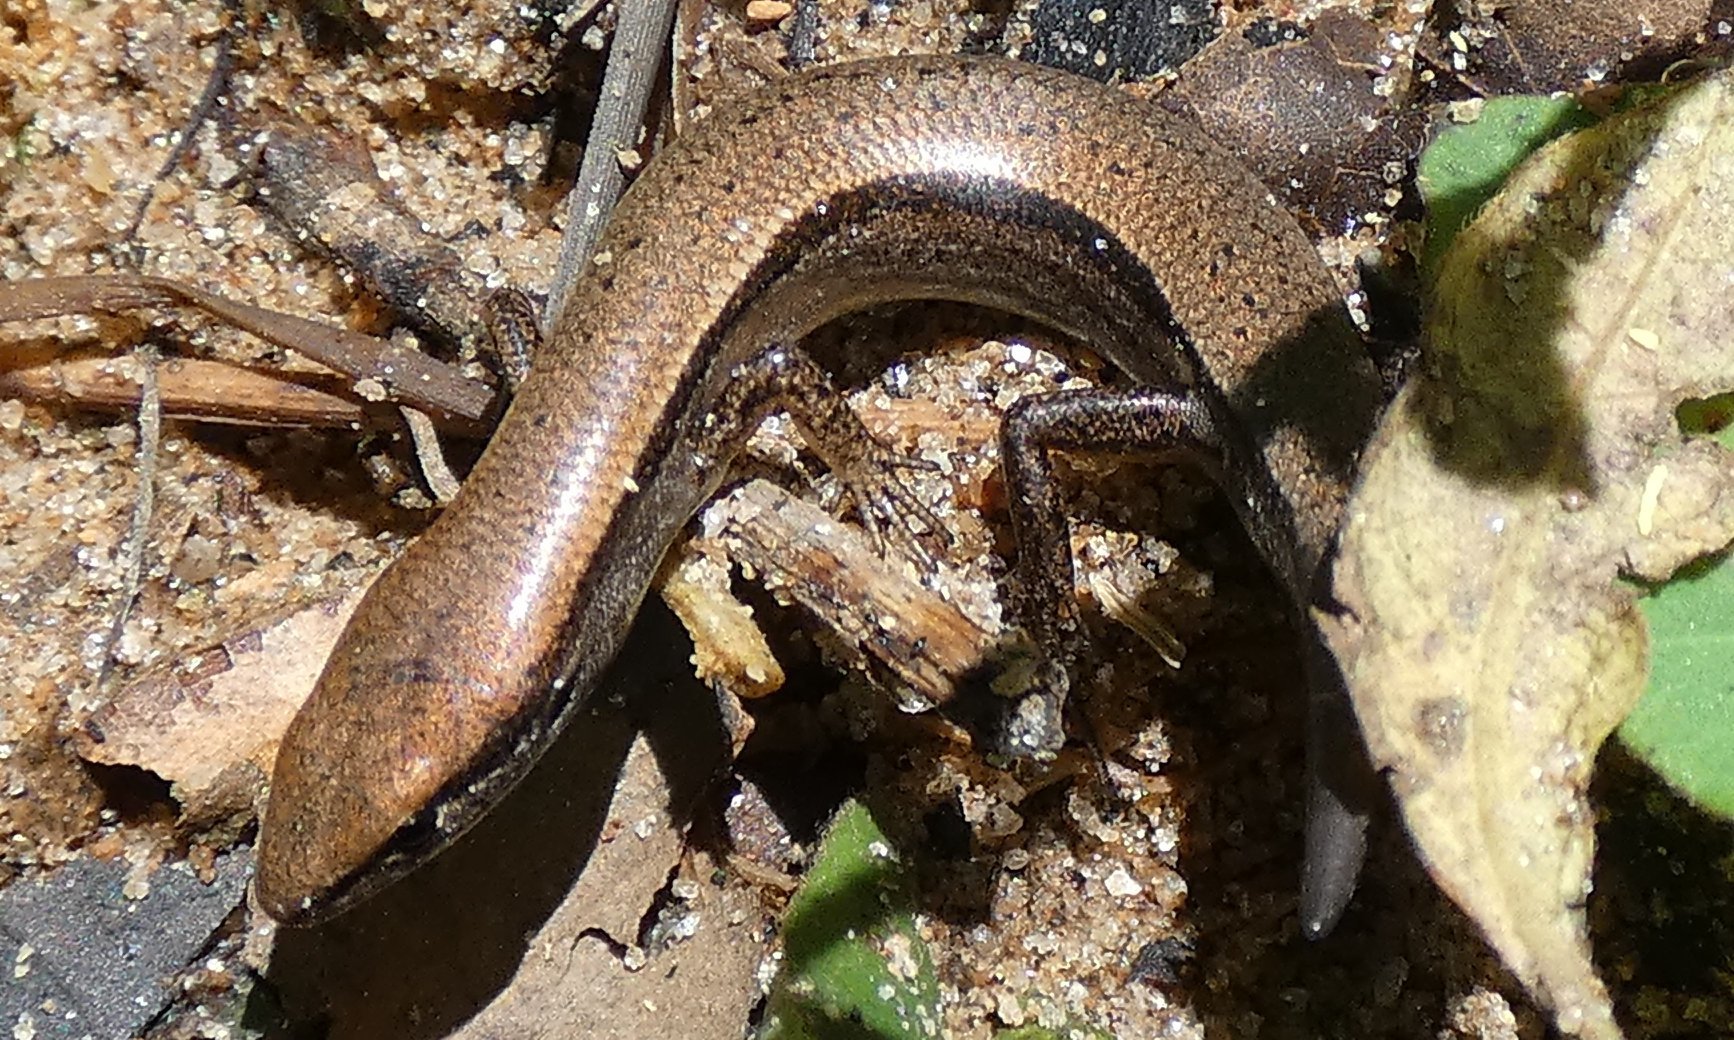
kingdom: Animalia
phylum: Chordata
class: Squamata
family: Scincidae
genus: Scincella
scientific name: Scincella lateralis
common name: Ground skink
